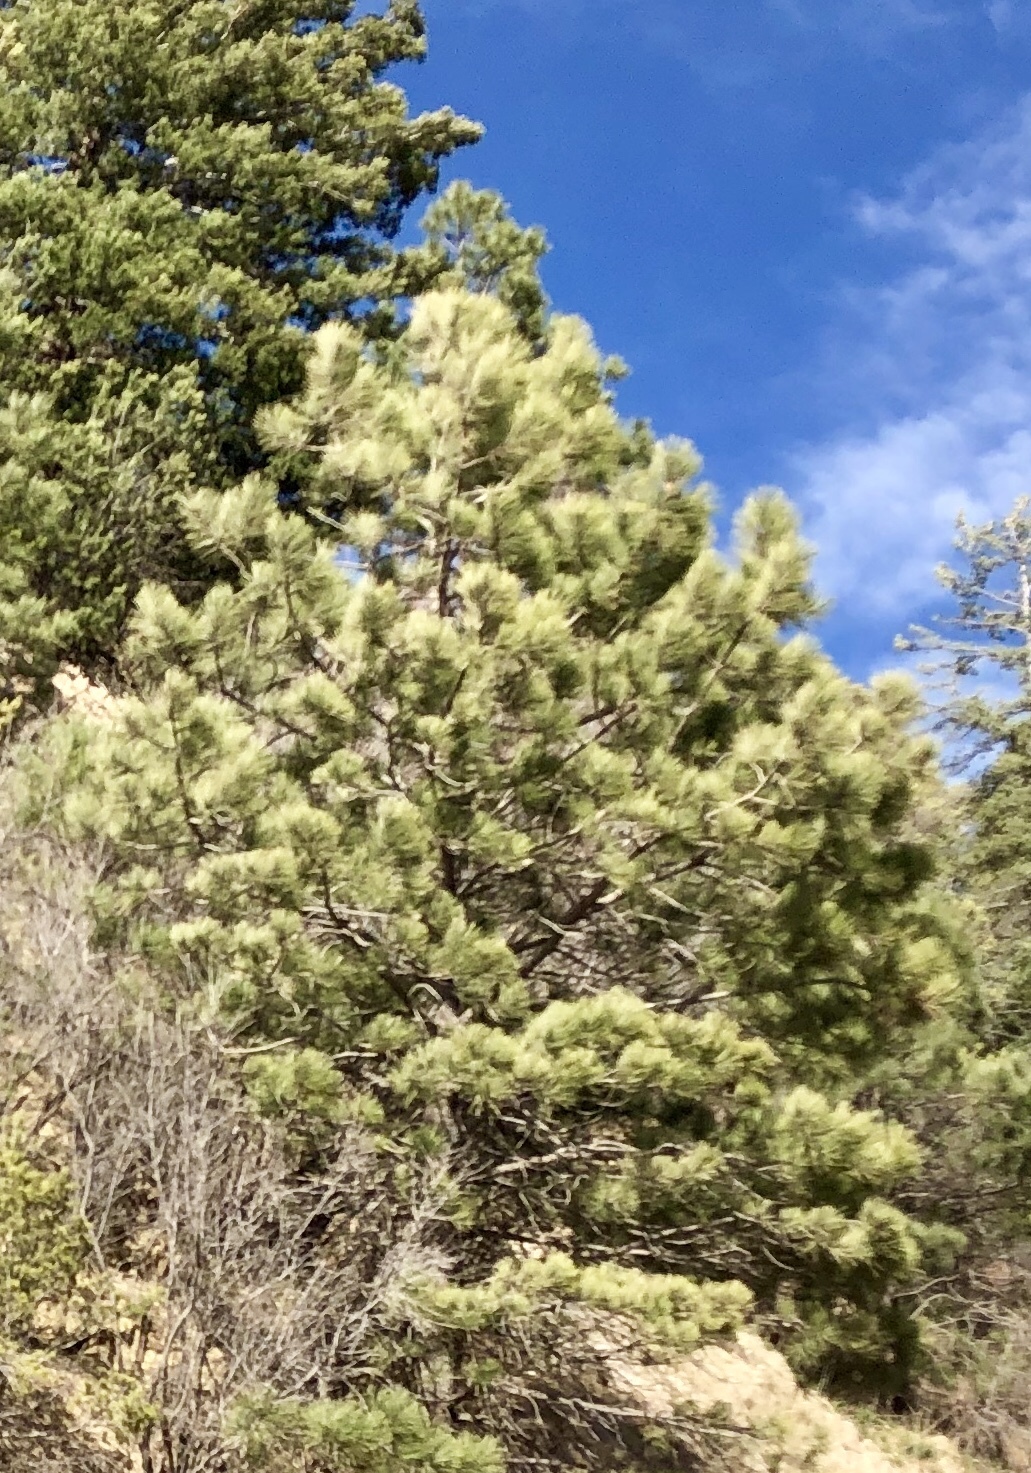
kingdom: Plantae
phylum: Tracheophyta
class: Pinopsida
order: Pinales
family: Pinaceae
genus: Pinus
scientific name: Pinus ponderosa
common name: Western yellow-pine
